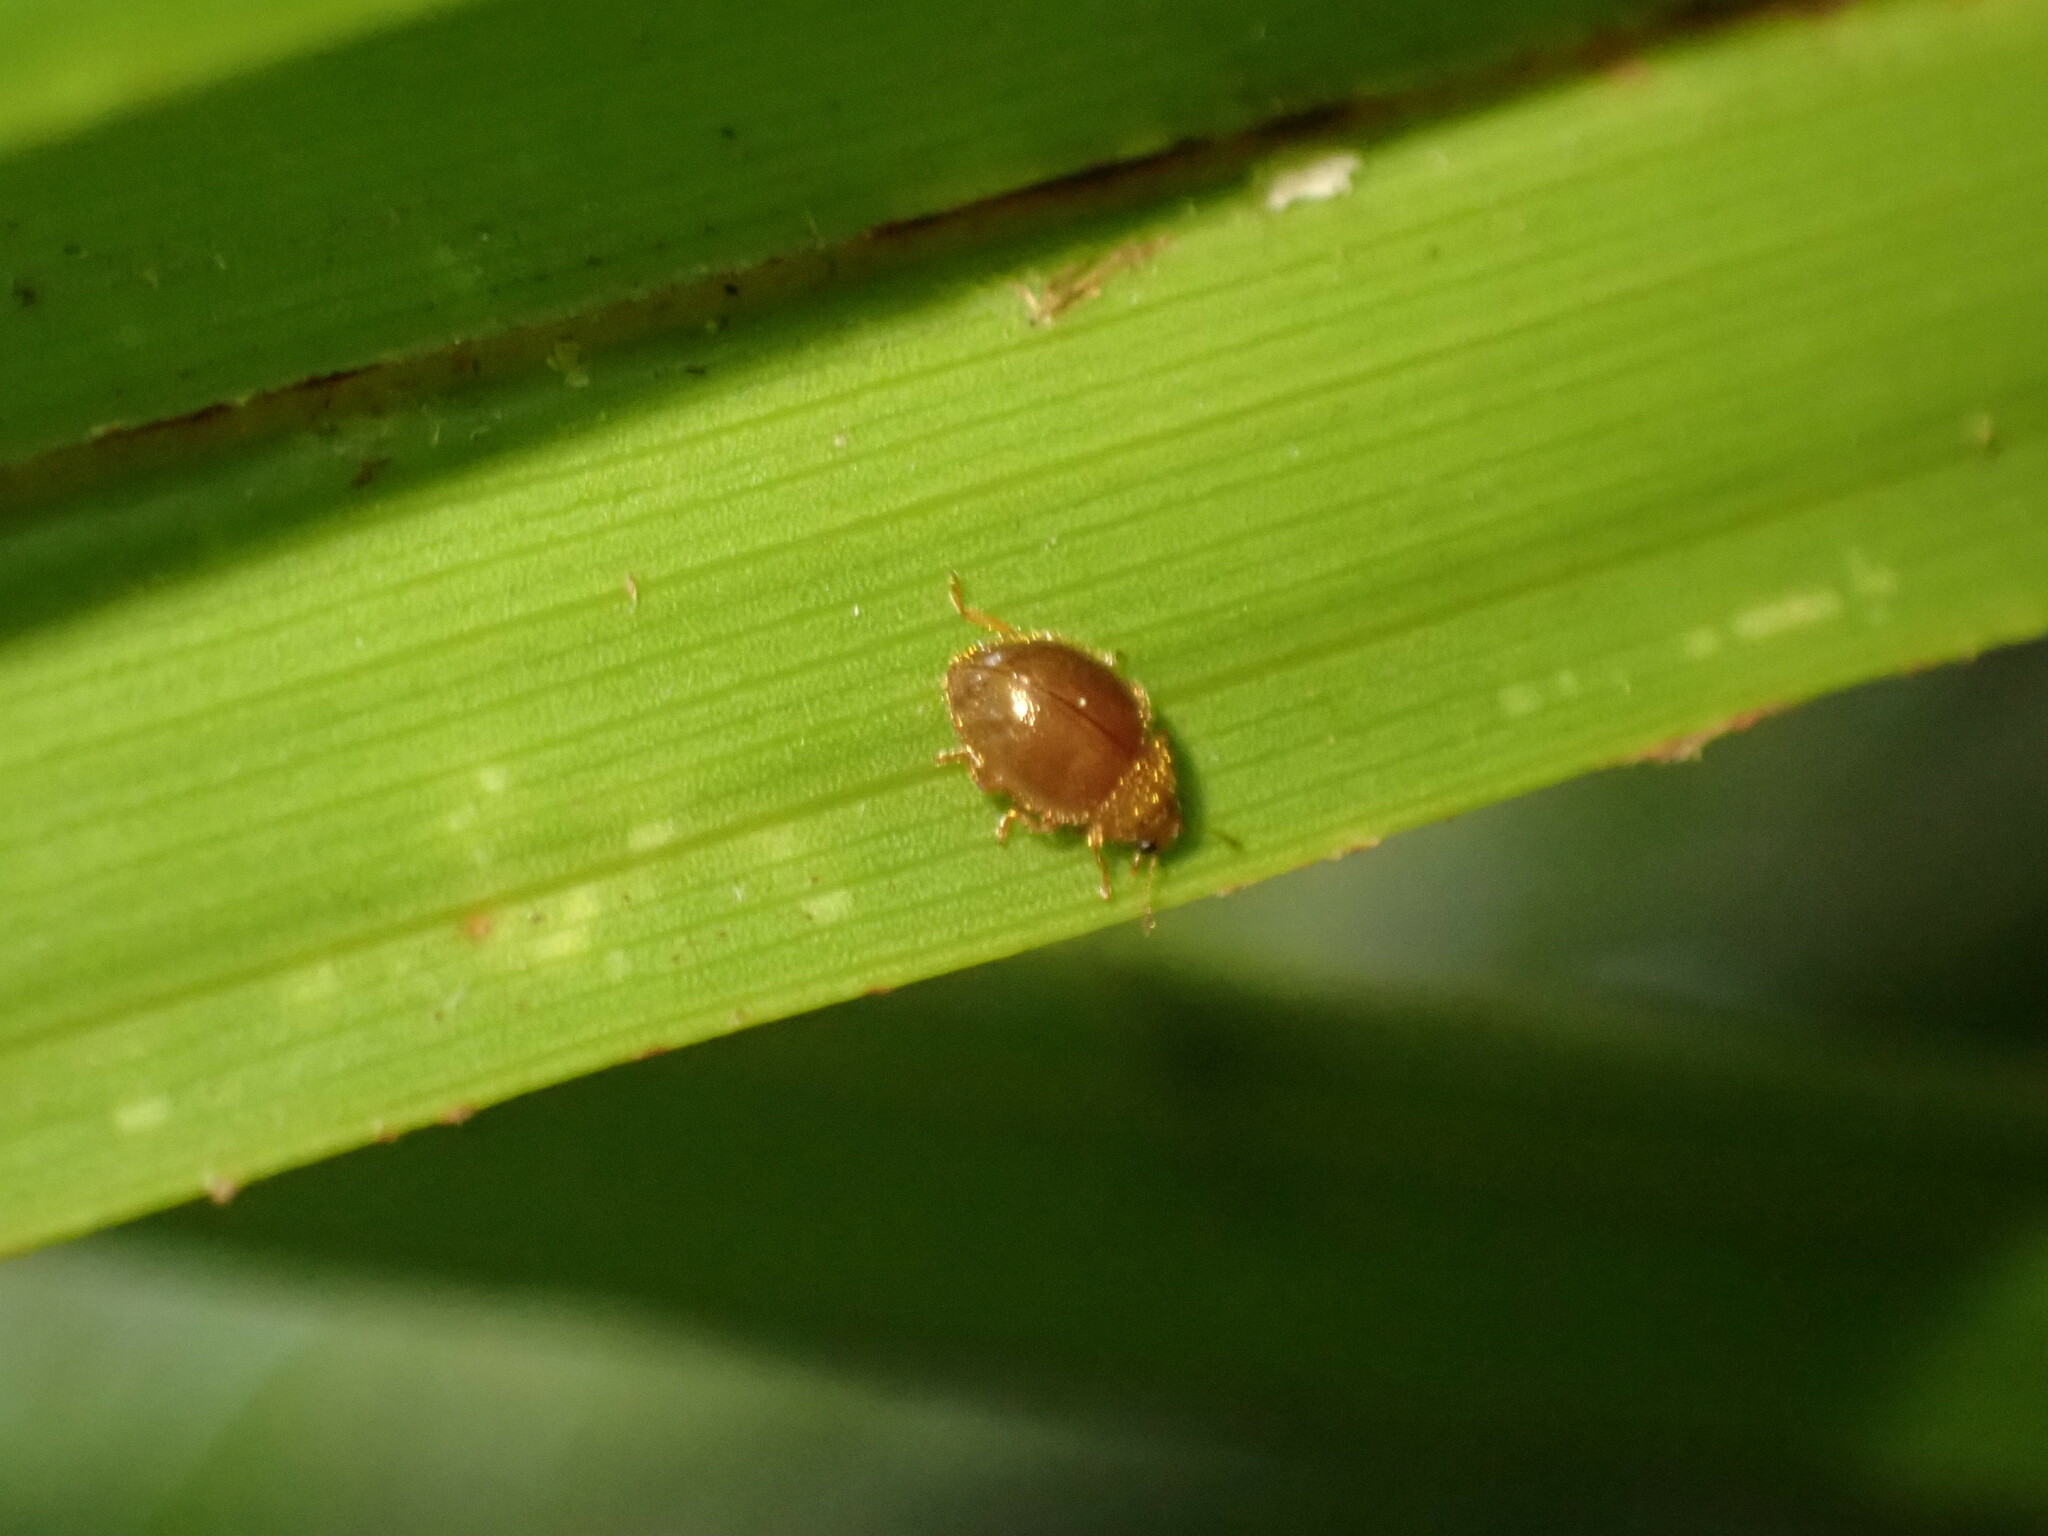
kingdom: Animalia
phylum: Arthropoda
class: Insecta
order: Coleoptera
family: Coccinellidae
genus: Adoxellus
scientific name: Adoxellus
